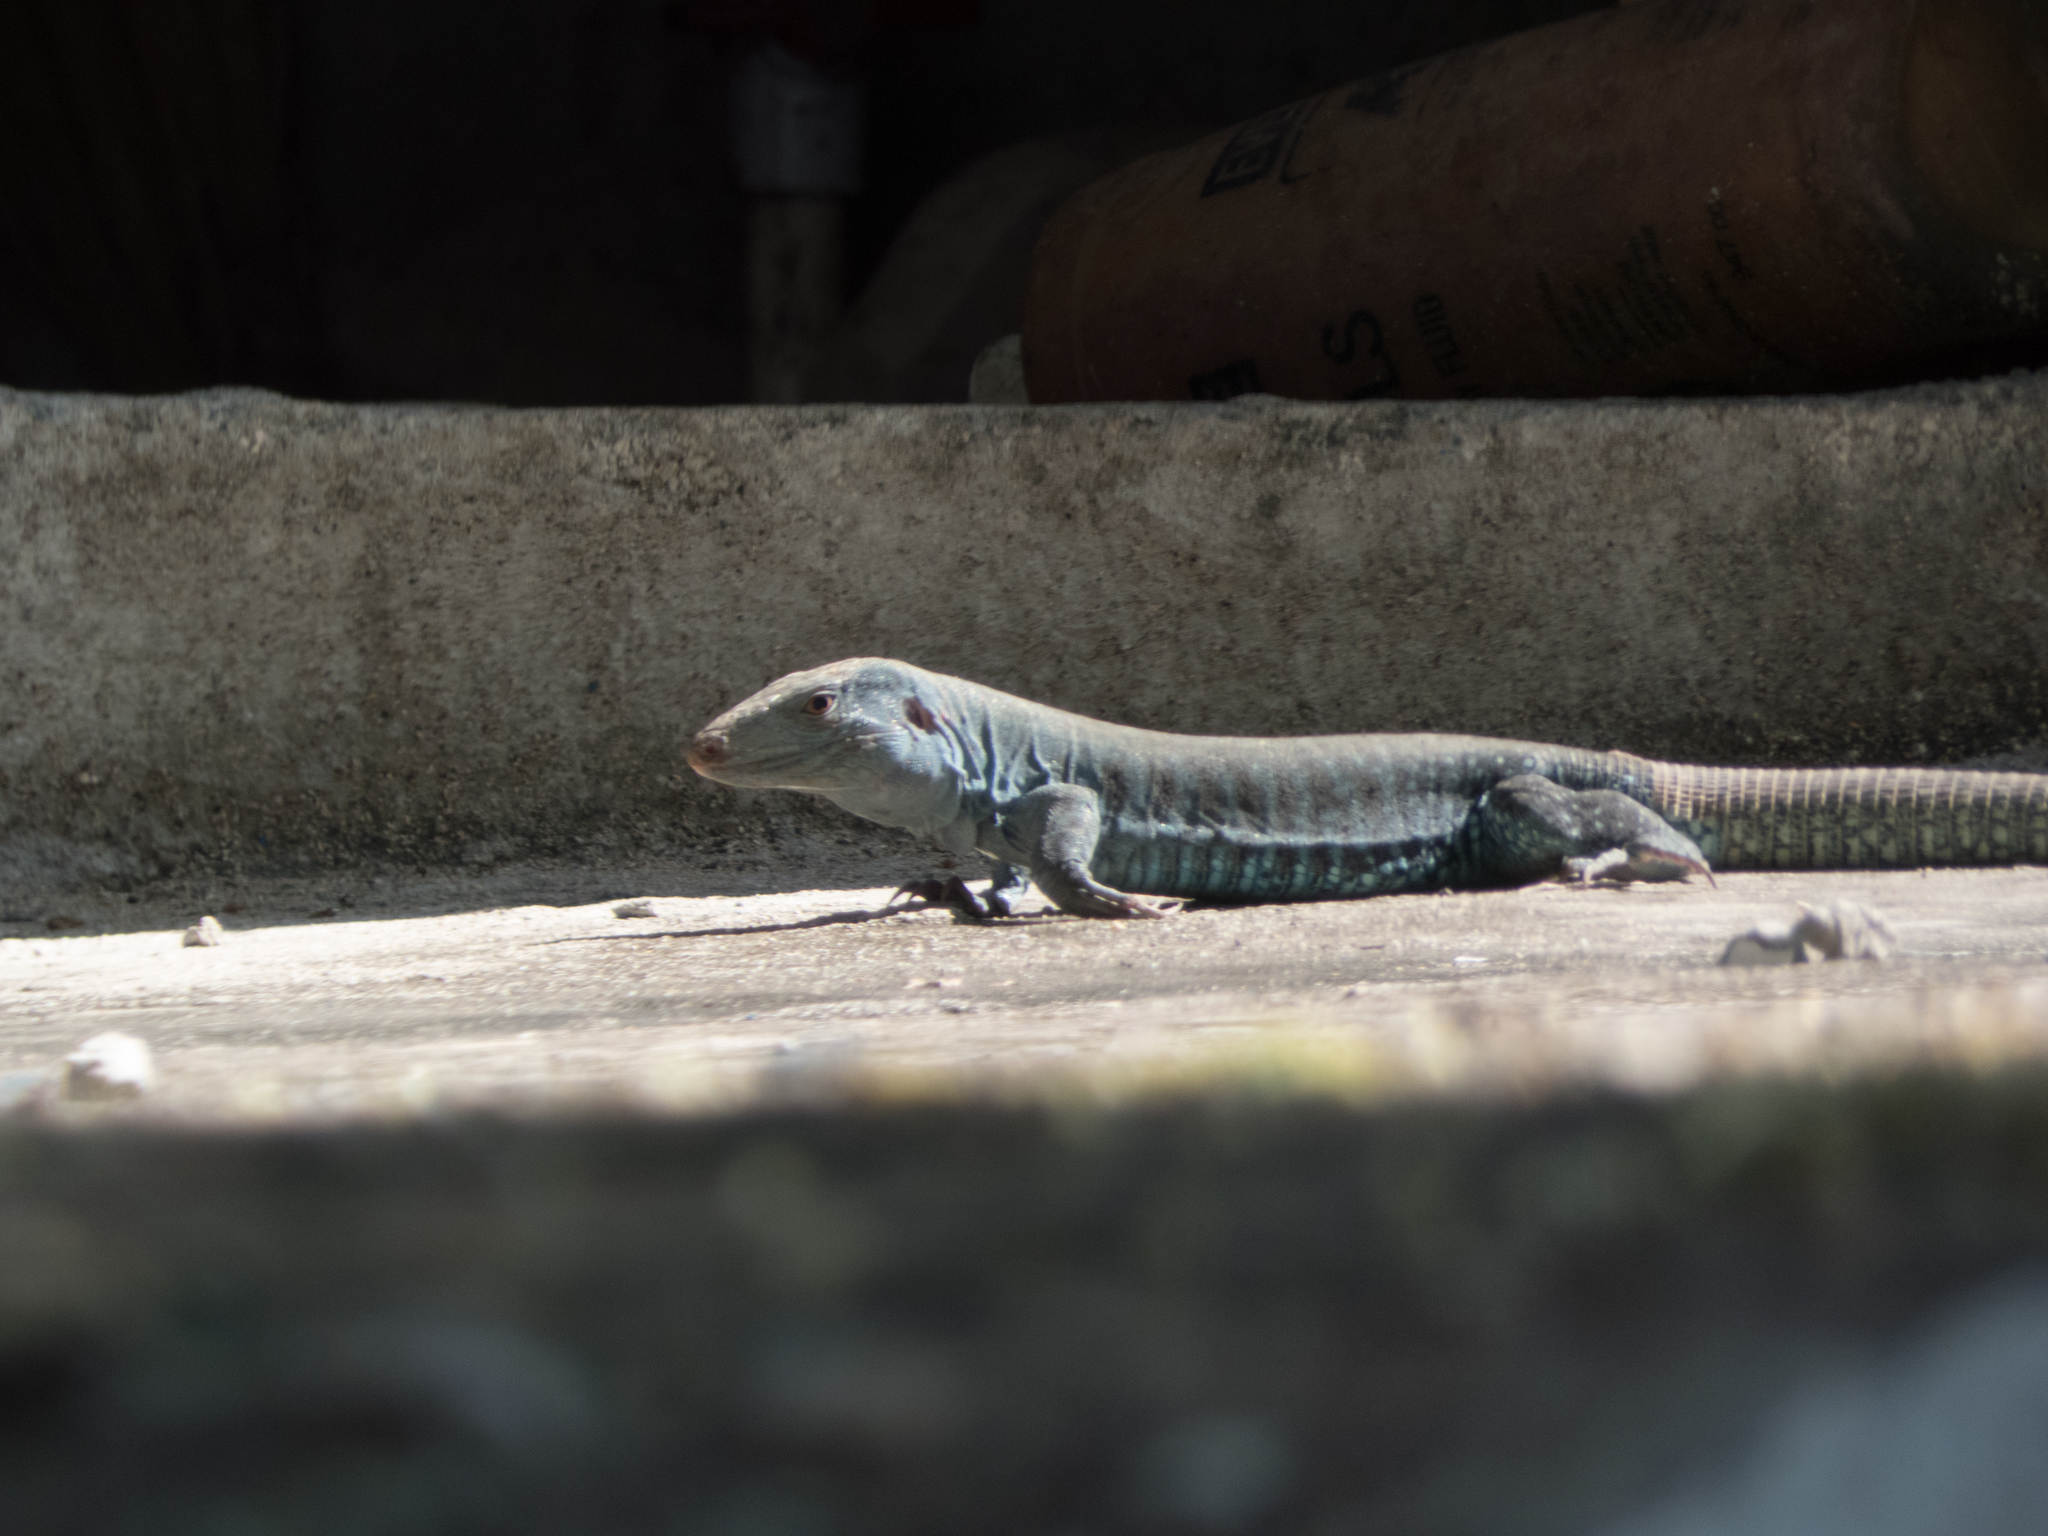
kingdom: Animalia
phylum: Chordata
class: Squamata
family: Teiidae
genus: Pholidoscelis
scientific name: Pholidoscelis exsul
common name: Common puerto rican ameiva
